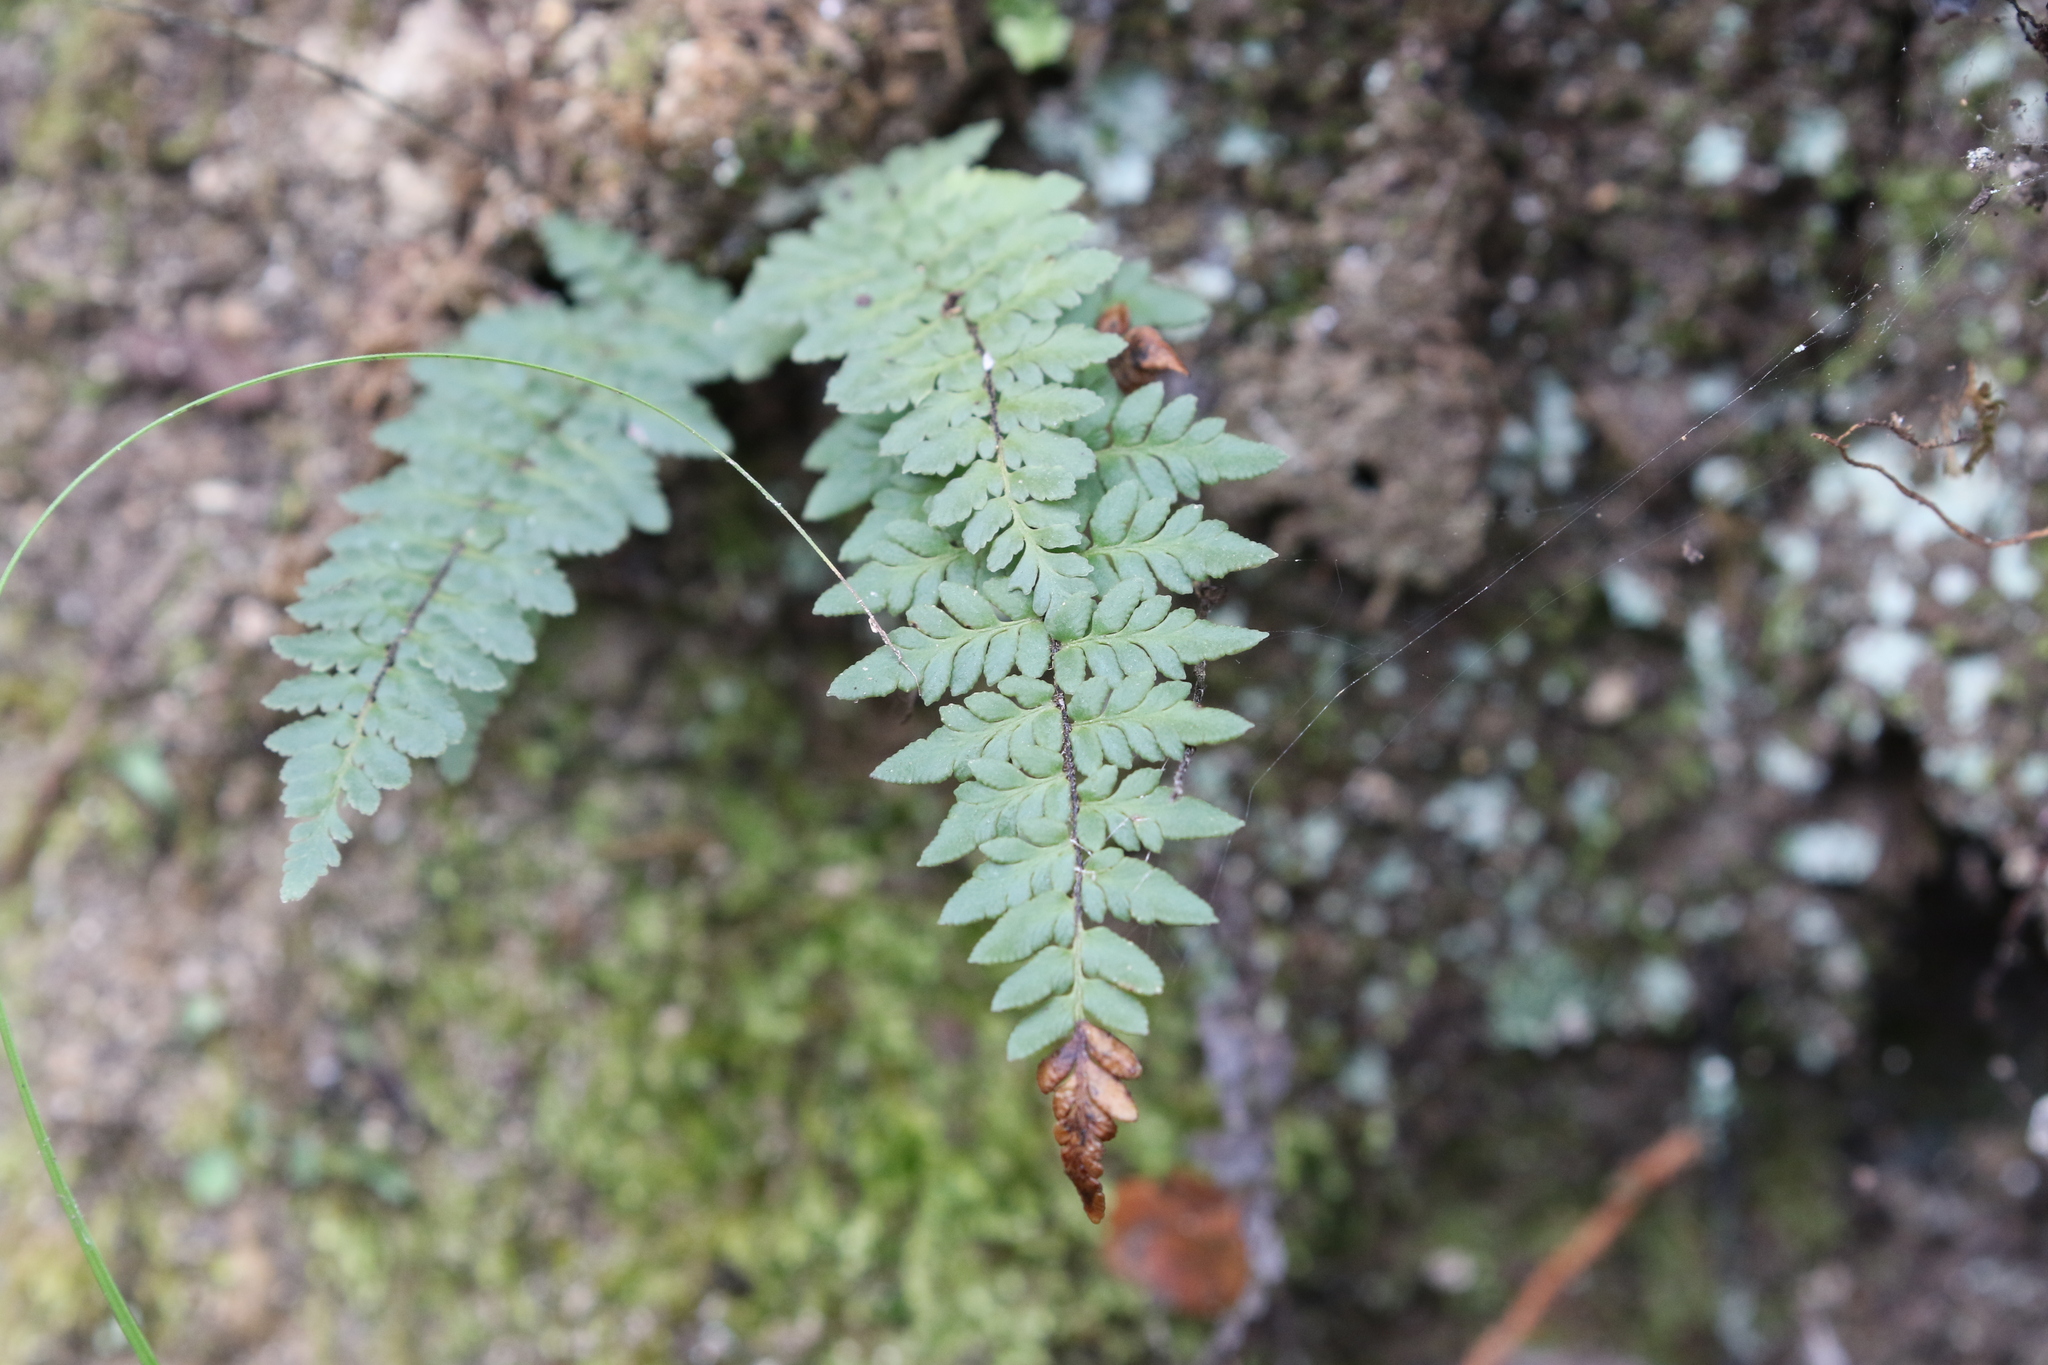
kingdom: Plantae
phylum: Tracheophyta
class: Polypodiopsida
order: Polypodiales
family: Pteridaceae
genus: Myriopteris
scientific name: Myriopteris alabamensis
